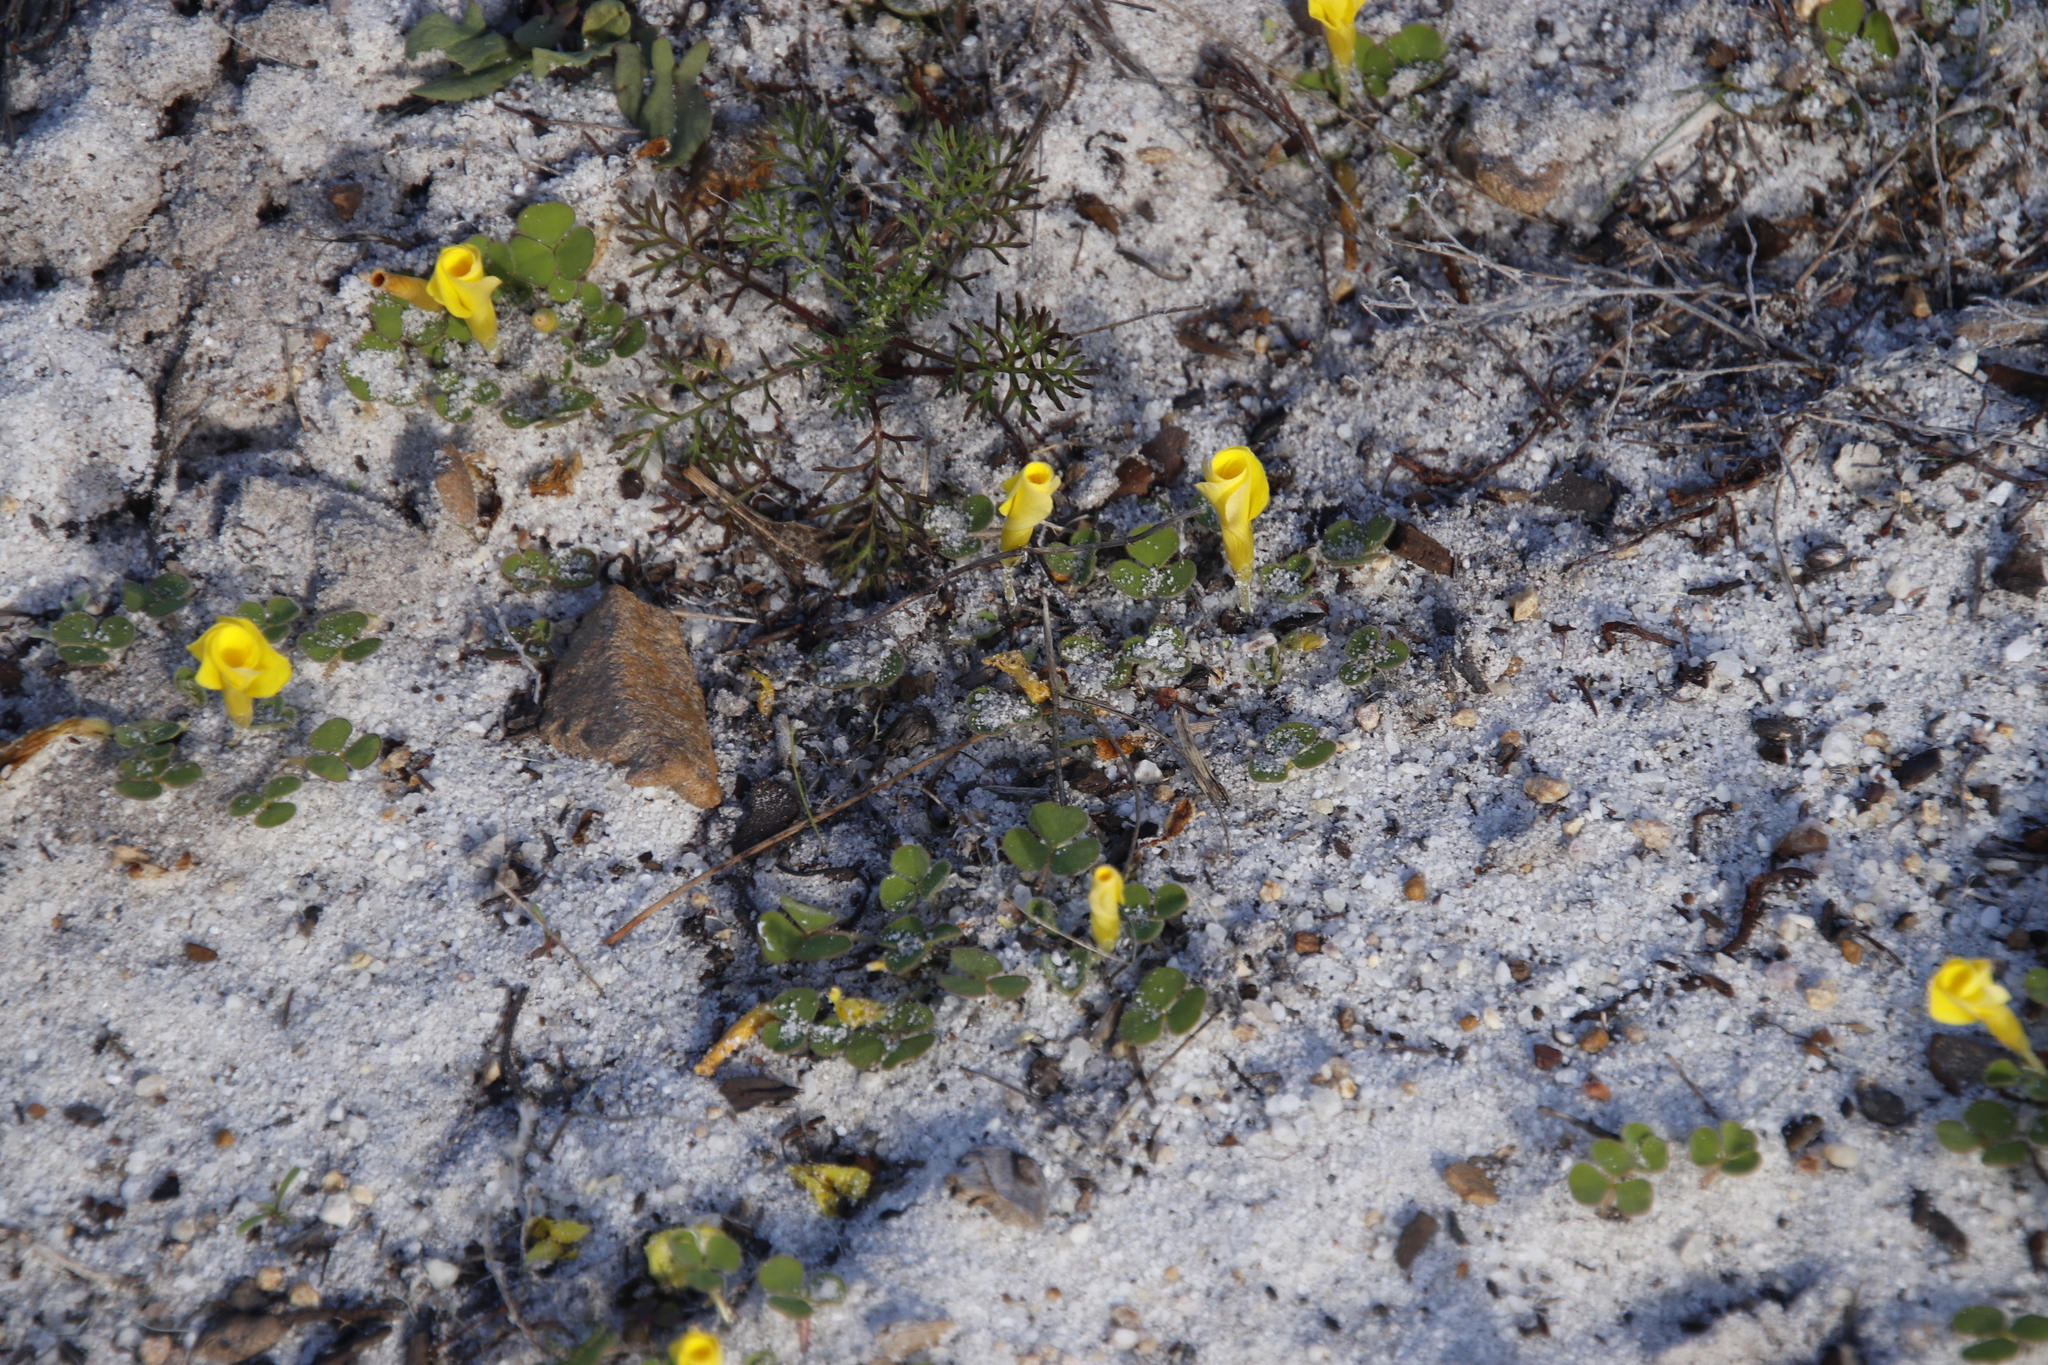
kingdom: Plantae
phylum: Tracheophyta
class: Magnoliopsida
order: Oxalidales
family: Oxalidaceae
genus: Oxalis
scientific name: Oxalis luteola
